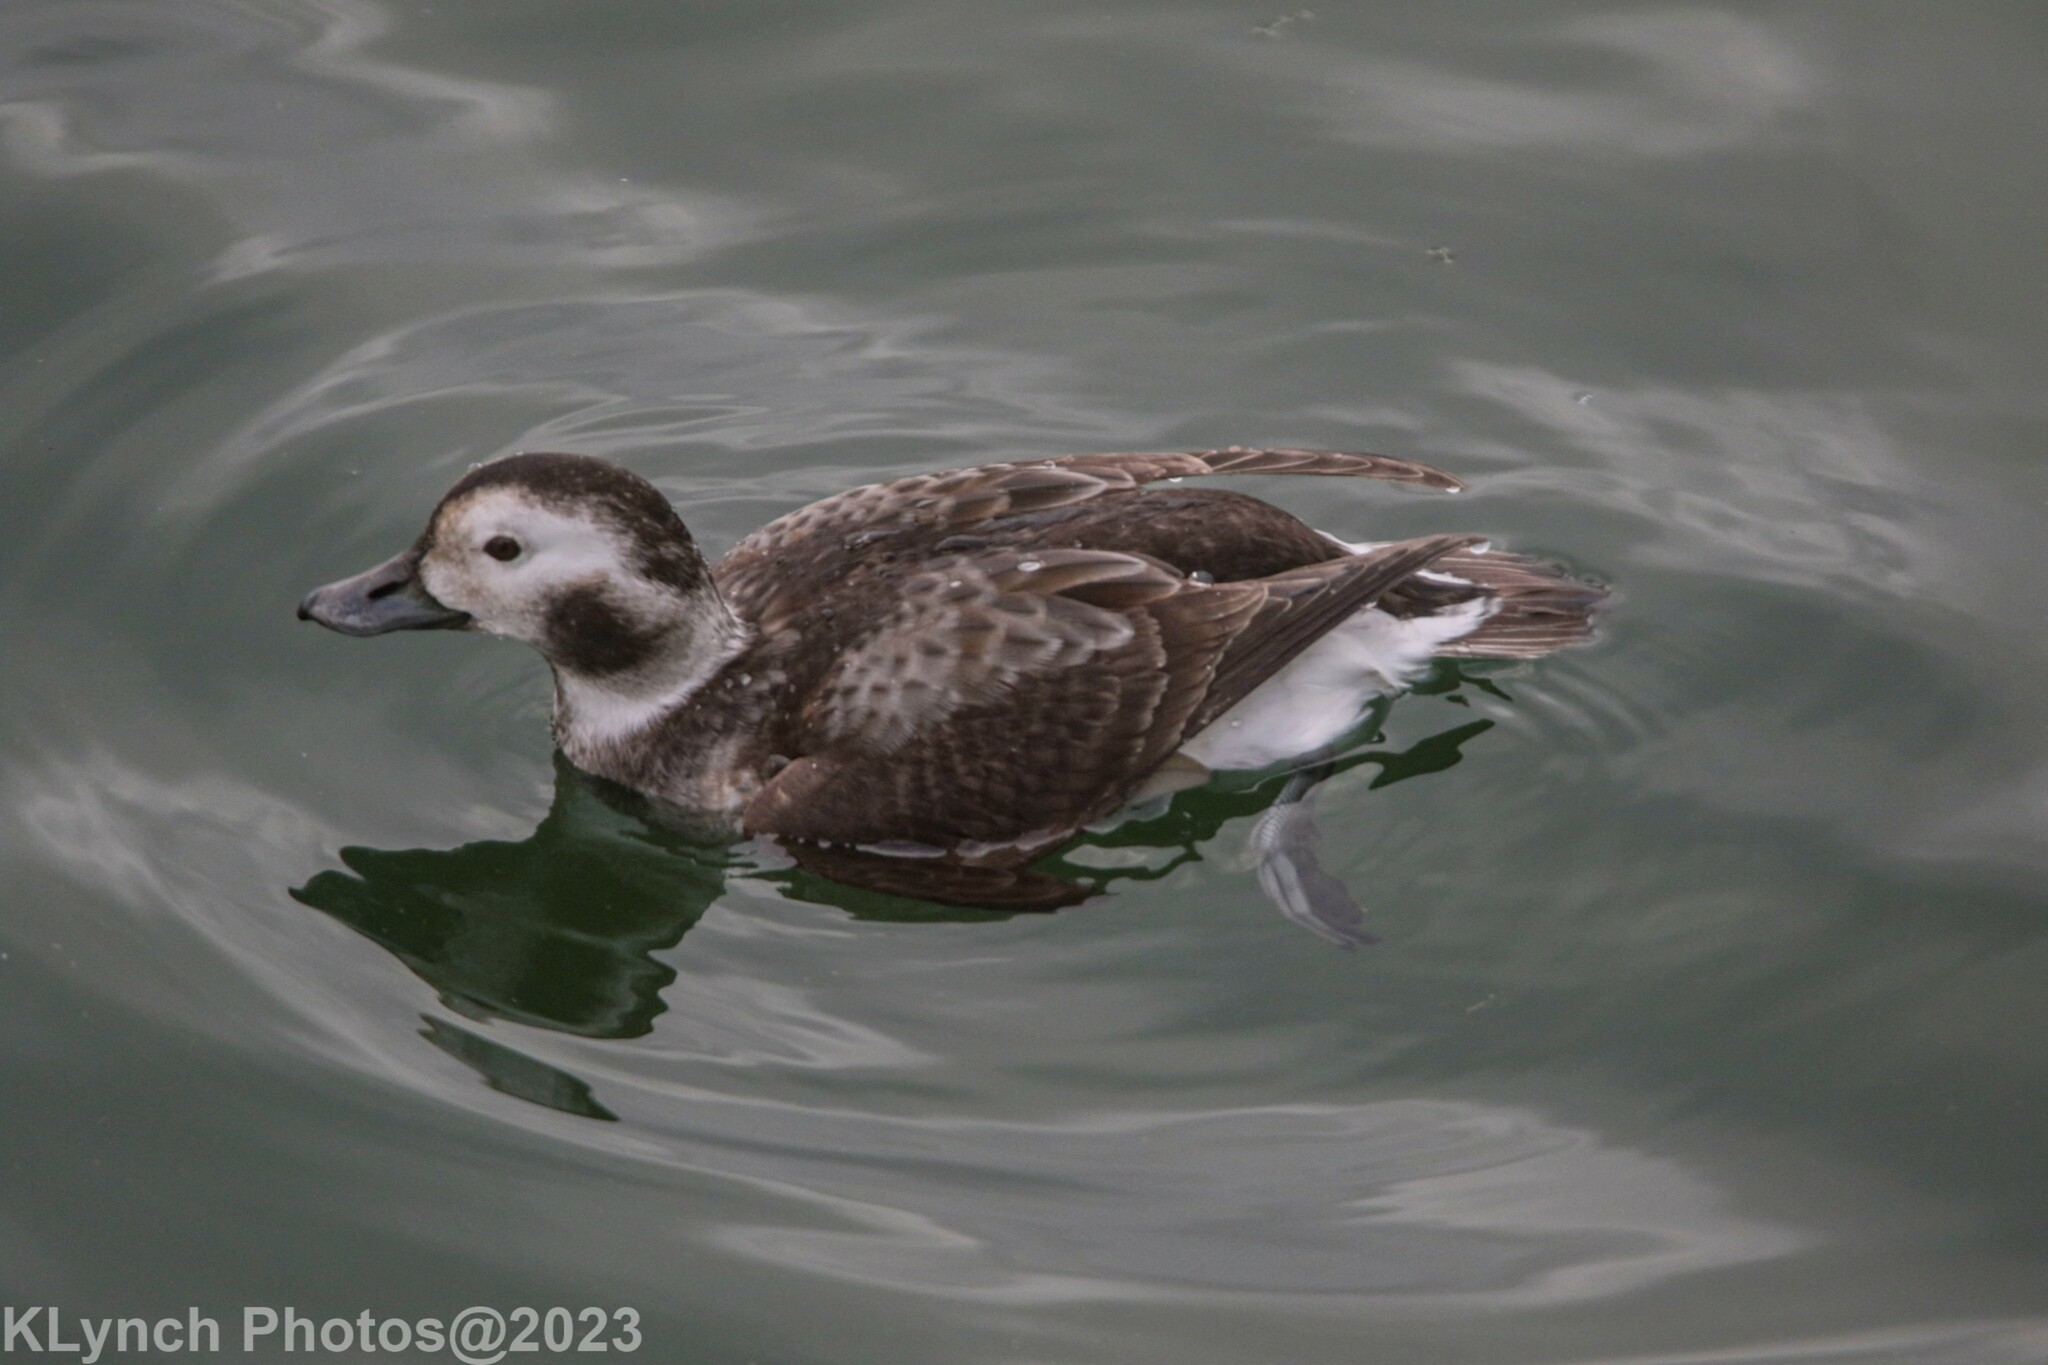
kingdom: Animalia
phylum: Chordata
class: Aves
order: Anseriformes
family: Anatidae
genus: Clangula
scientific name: Clangula hyemalis
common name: Long-tailed duck
